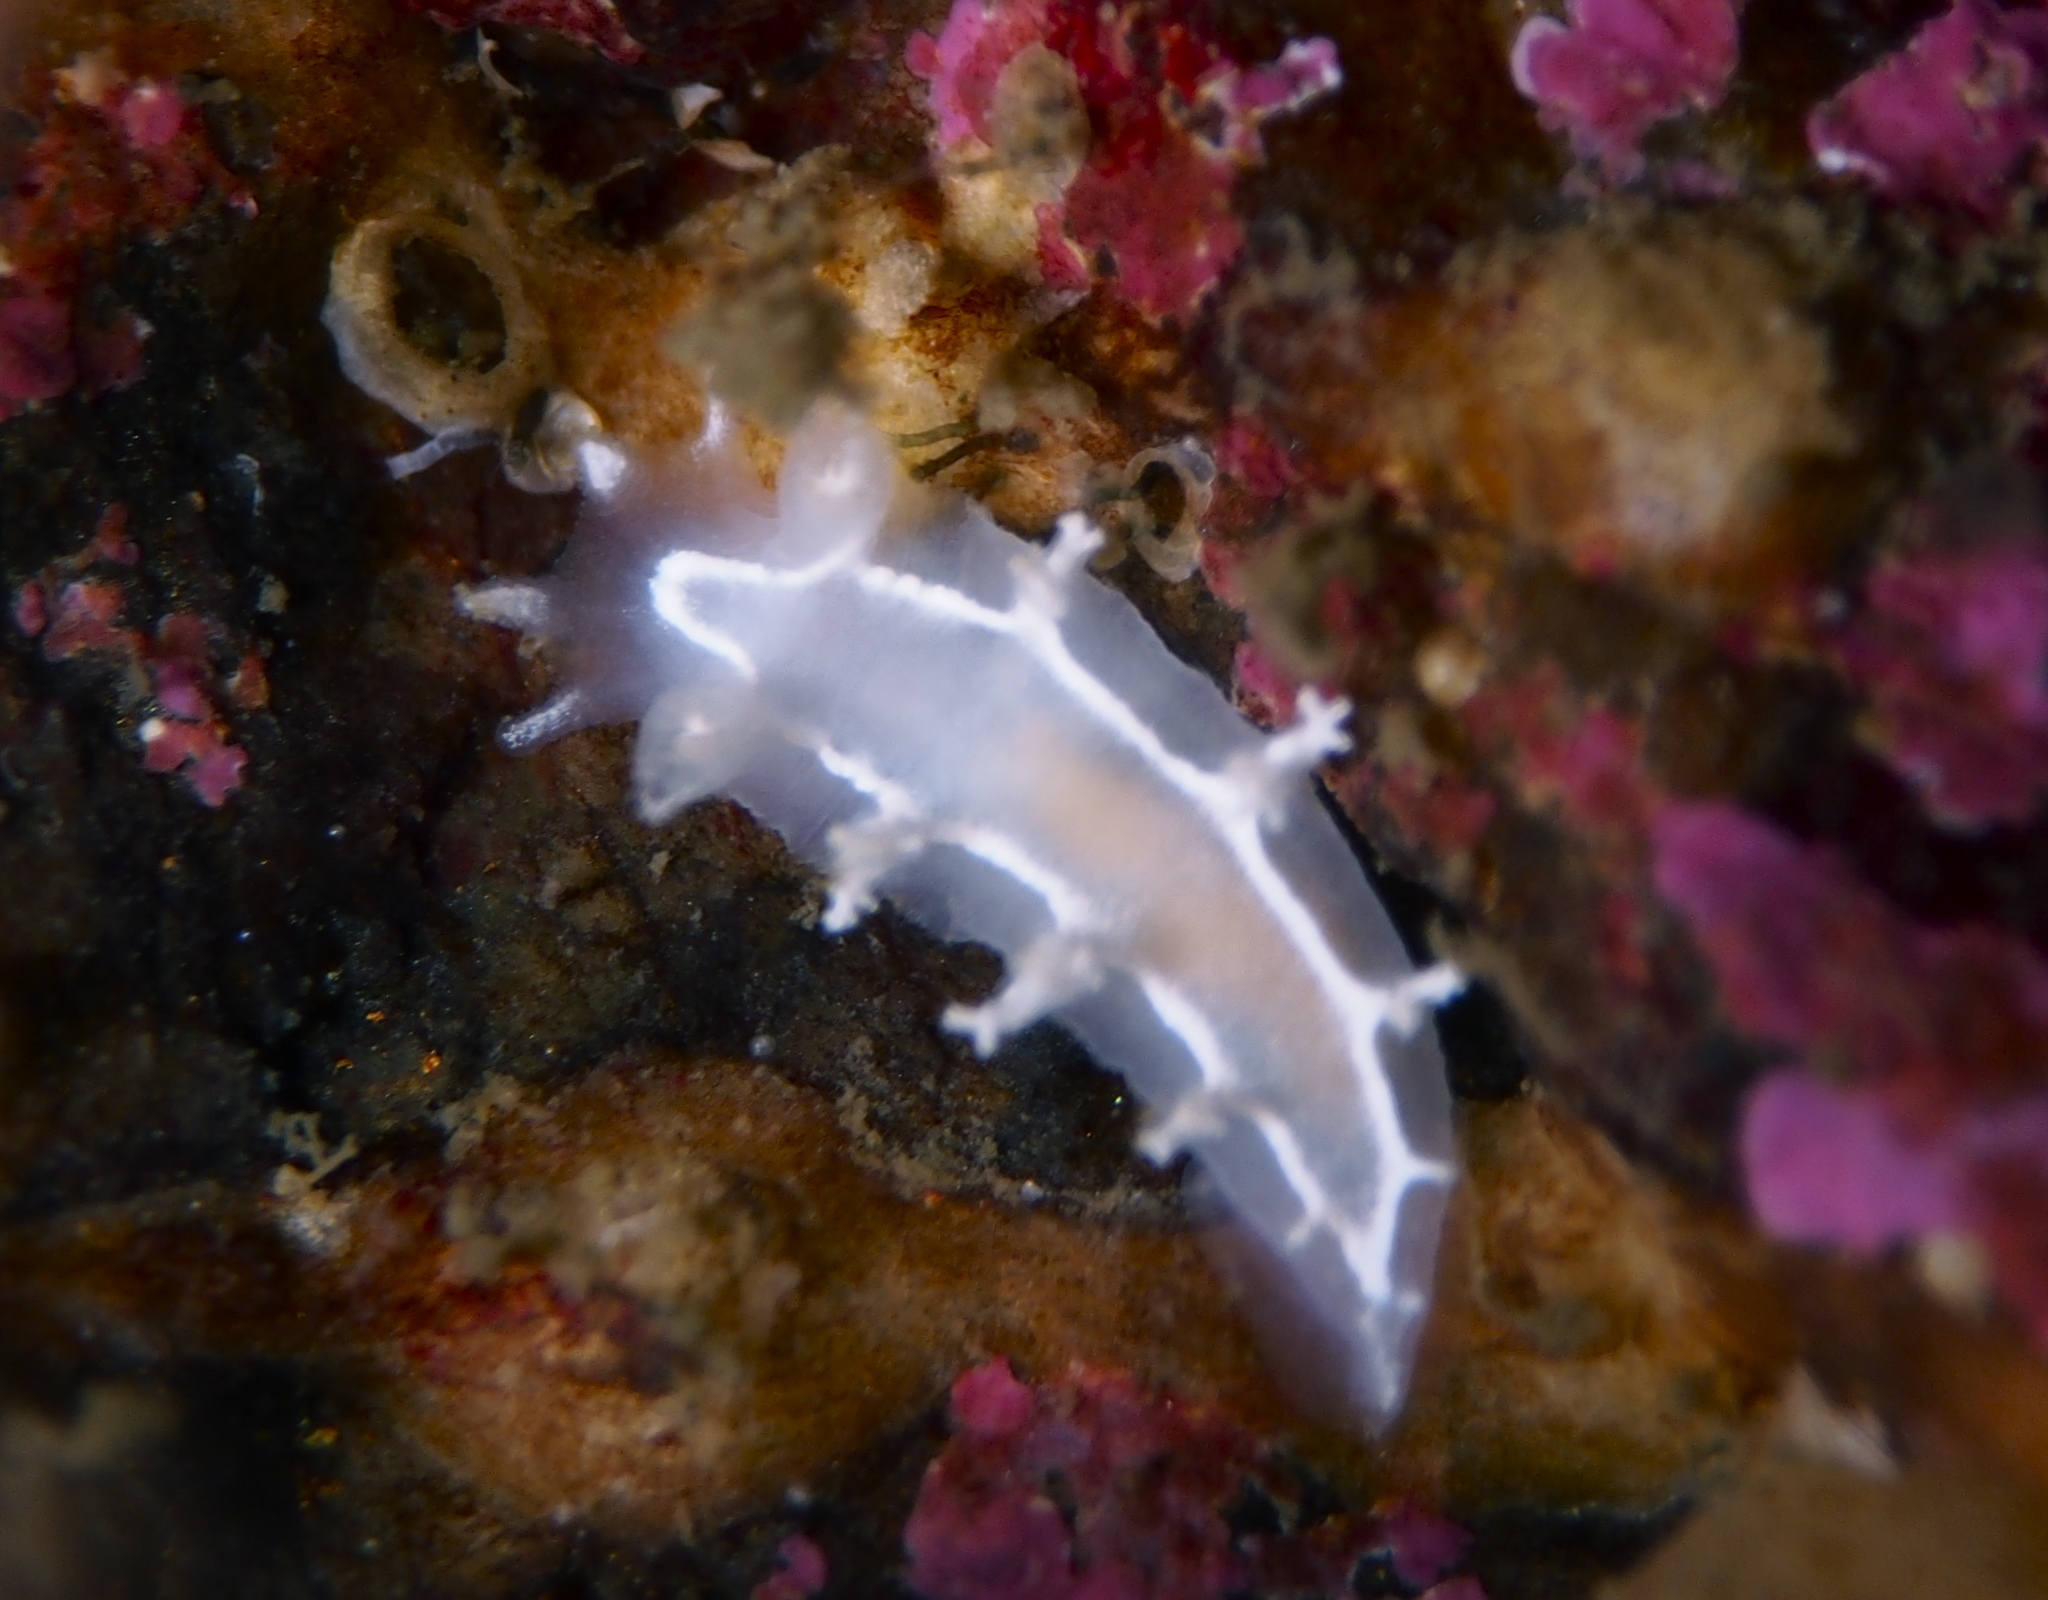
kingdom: Animalia
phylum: Mollusca
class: Gastropoda
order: Nudibranchia
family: Tritoniidae
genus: Duvaucelia
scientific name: Duvaucelia lineata
